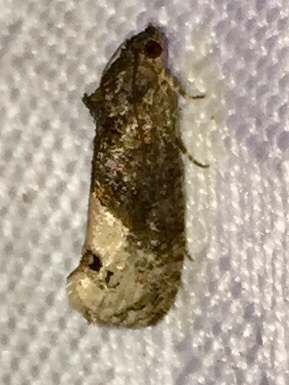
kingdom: Animalia
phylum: Arthropoda
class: Insecta
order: Lepidoptera
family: Tortricidae
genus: Ecdytolopha
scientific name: Ecdytolopha insiticiana
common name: Locust twig borer moth
